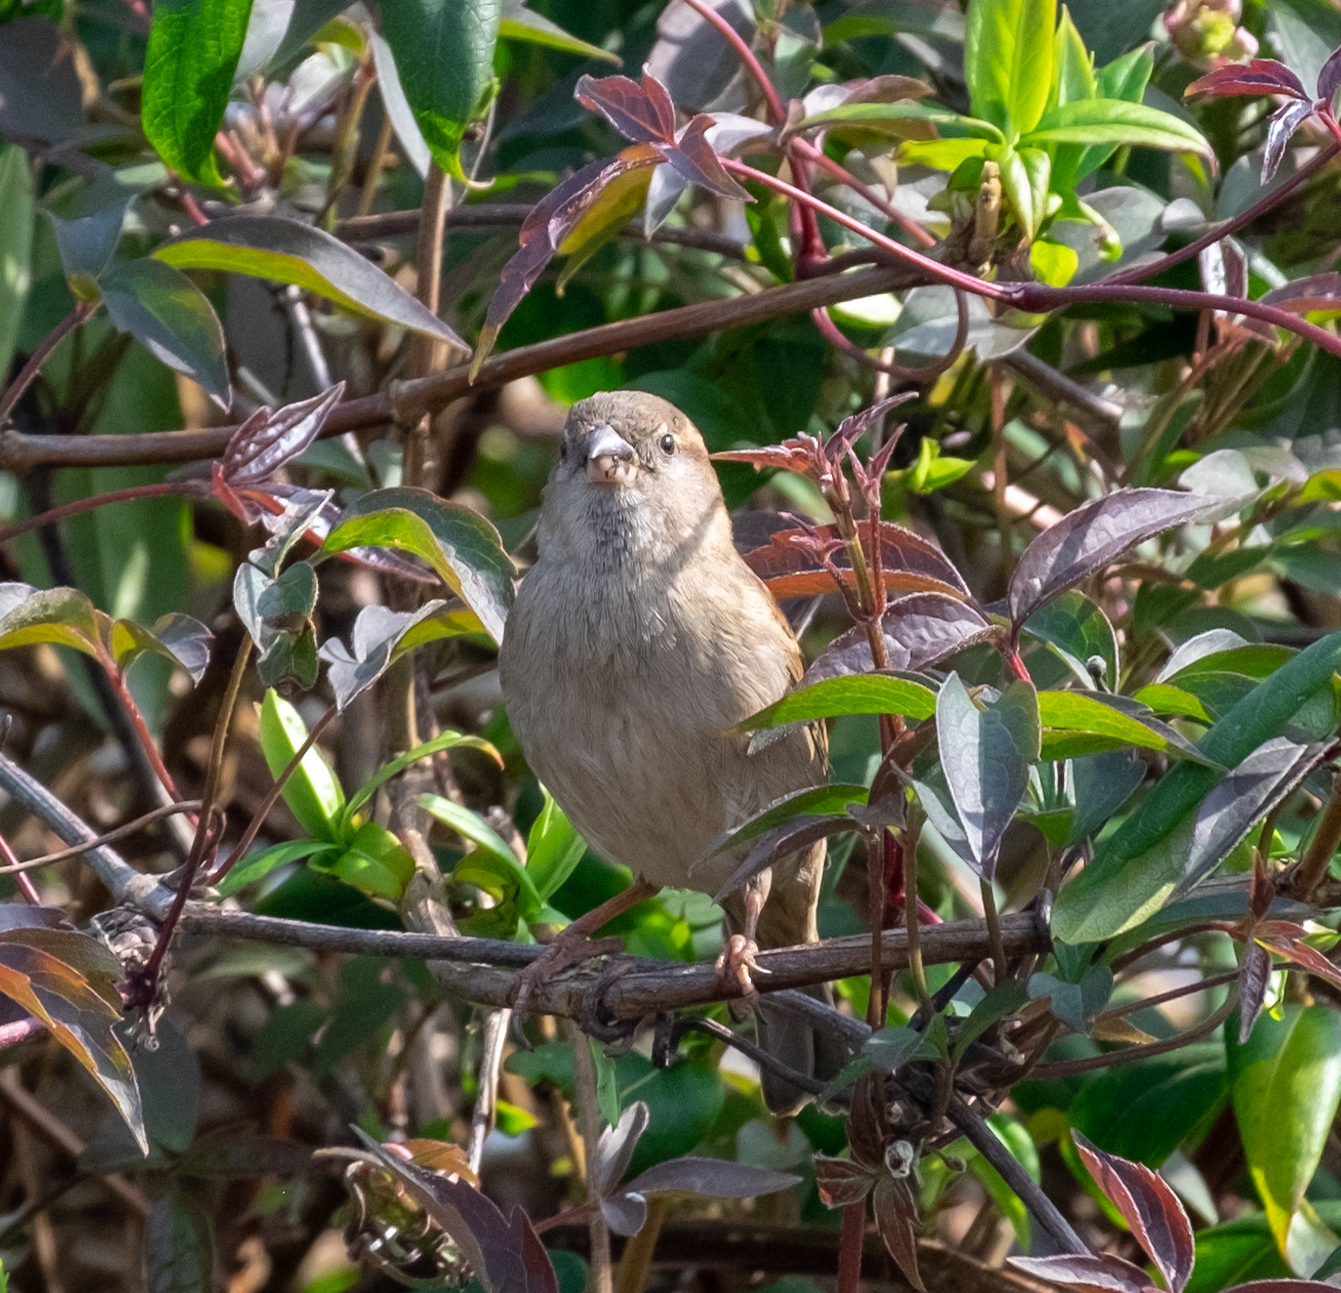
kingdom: Animalia
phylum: Chordata
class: Aves
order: Passeriformes
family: Passeridae
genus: Passer
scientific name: Passer domesticus
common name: House sparrow
